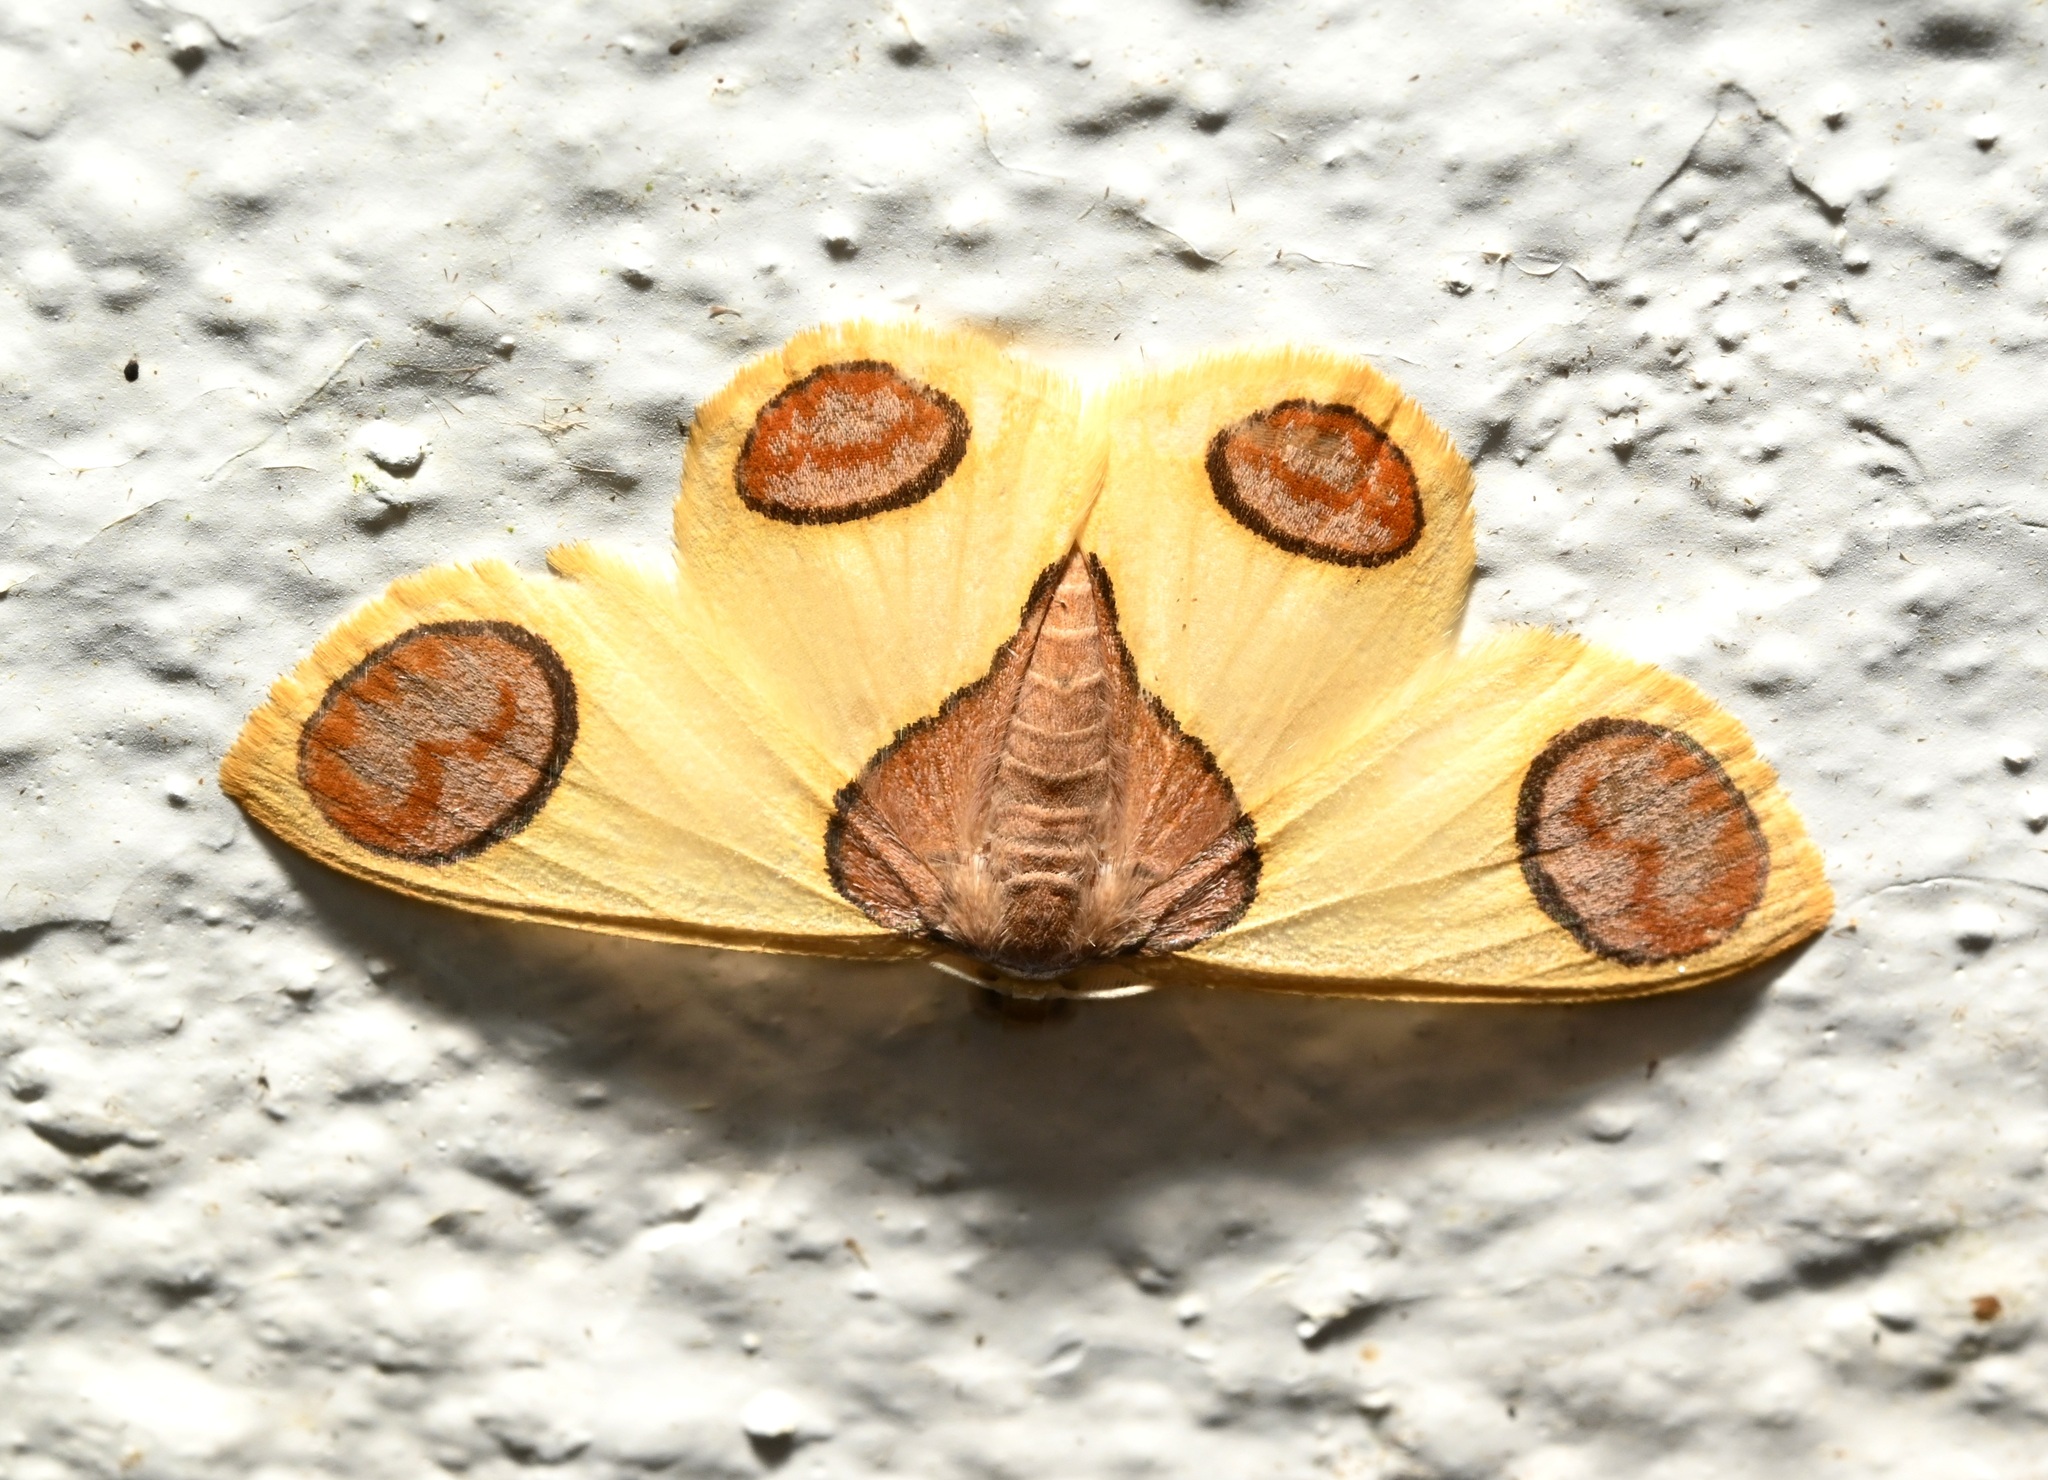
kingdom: Animalia
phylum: Arthropoda
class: Insecta
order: Lepidoptera
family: Geometridae
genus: Plutodes
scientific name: Plutodes flavescens
